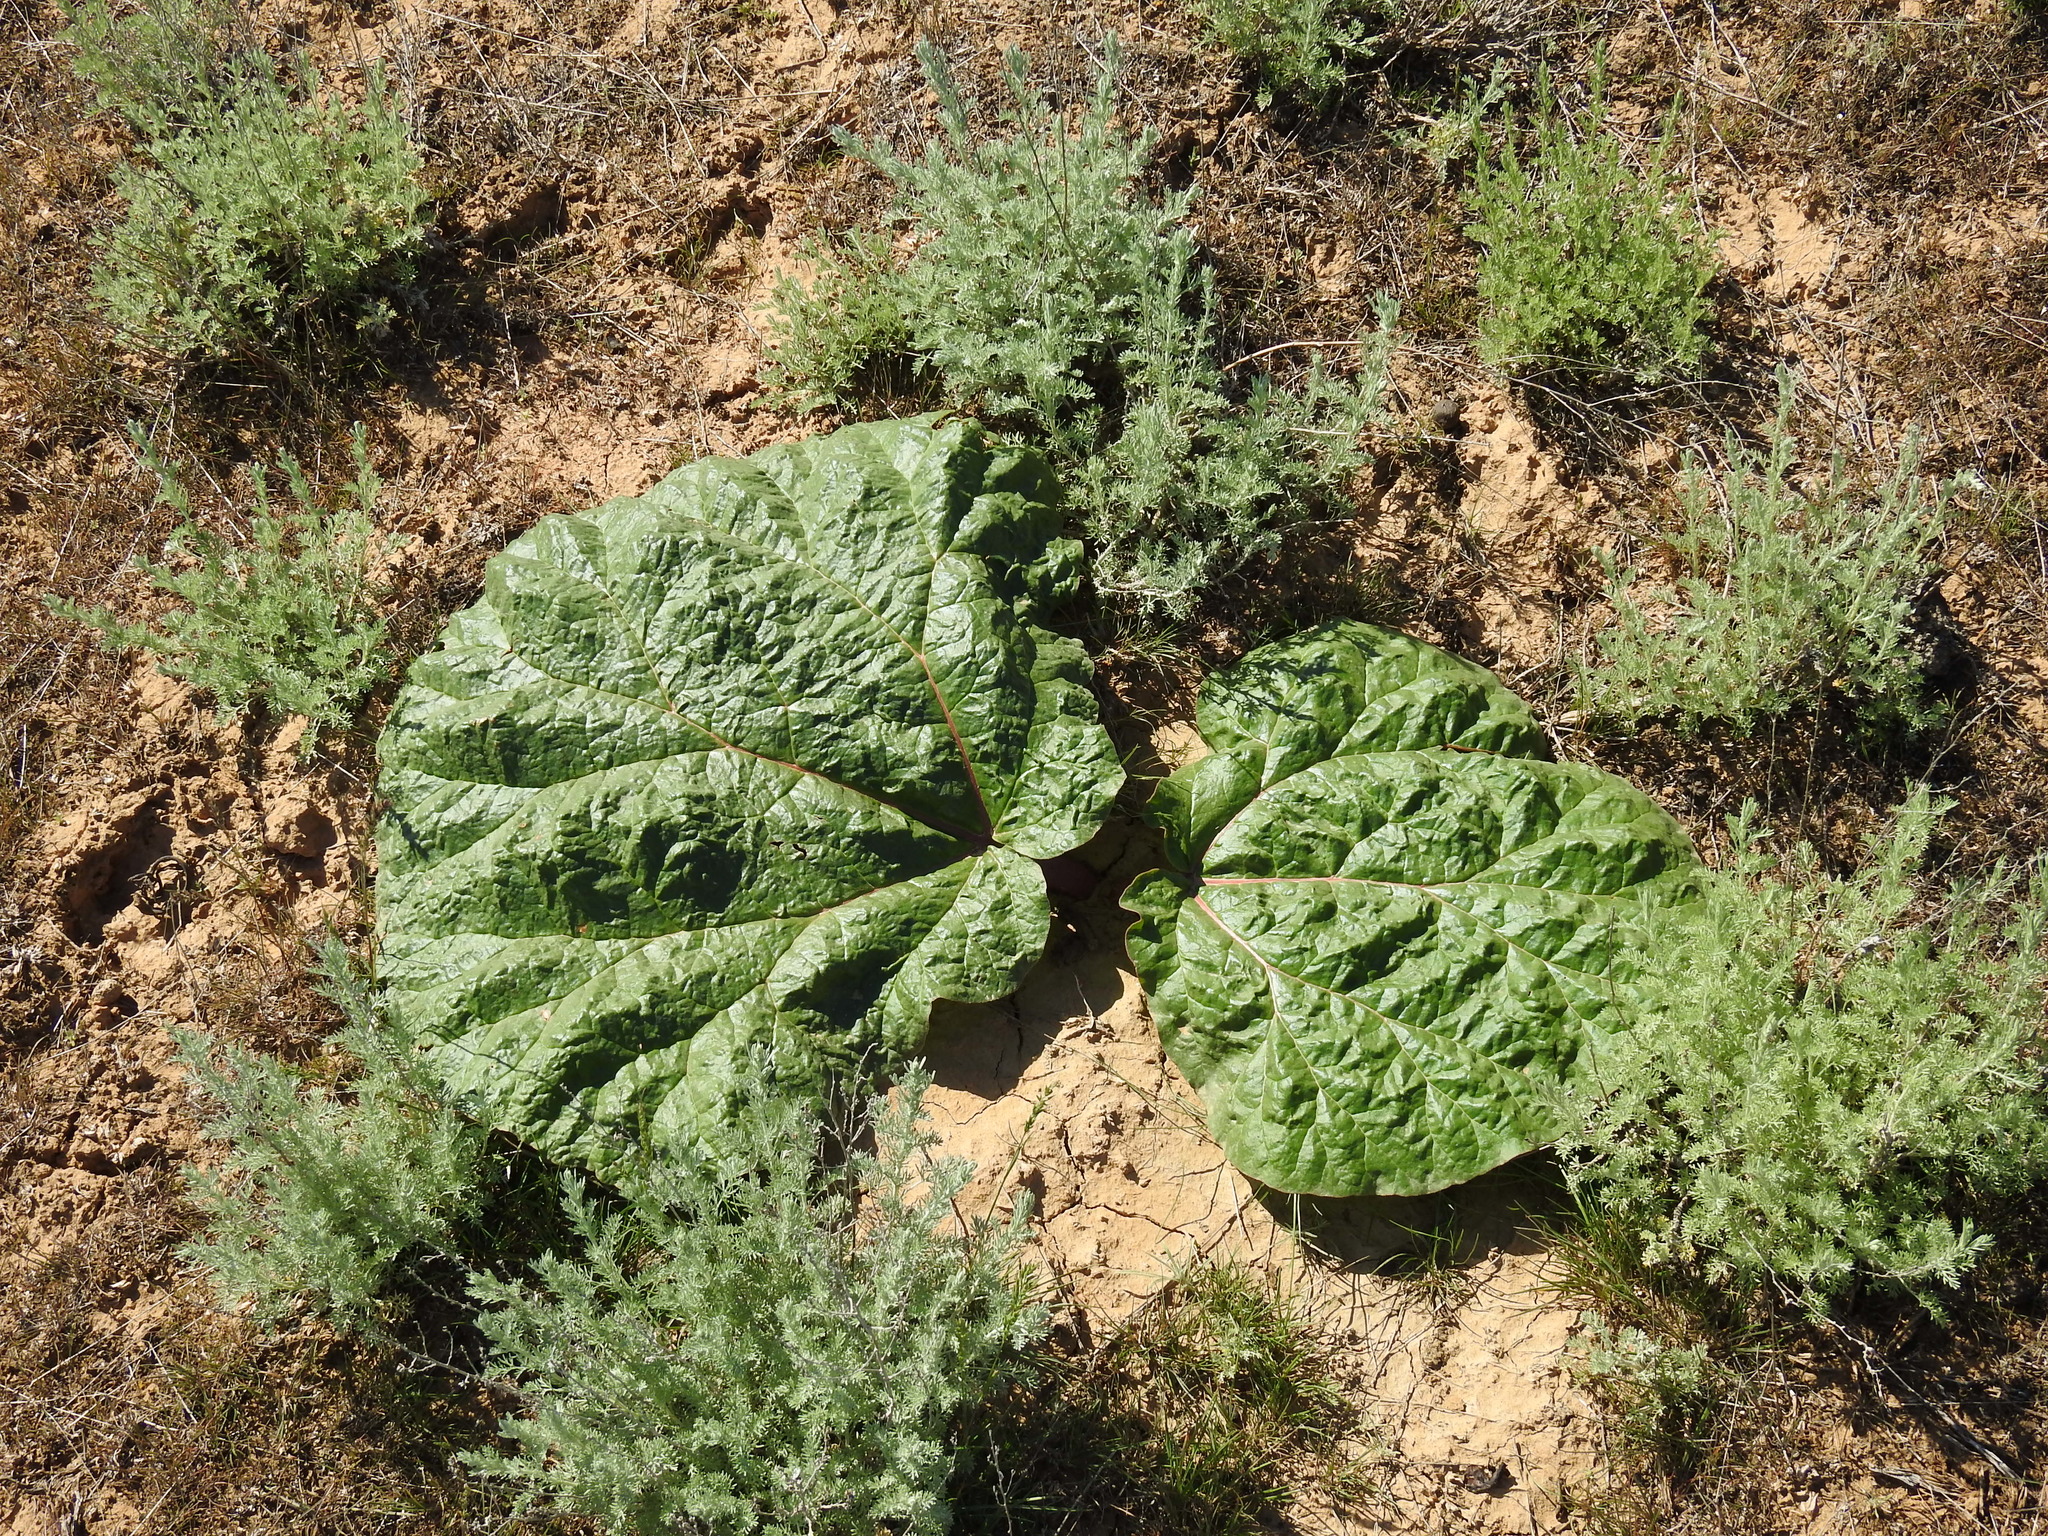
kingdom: Plantae
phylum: Tracheophyta
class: Magnoliopsida
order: Caryophyllales
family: Polygonaceae
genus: Rheum
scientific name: Rheum tataricum
